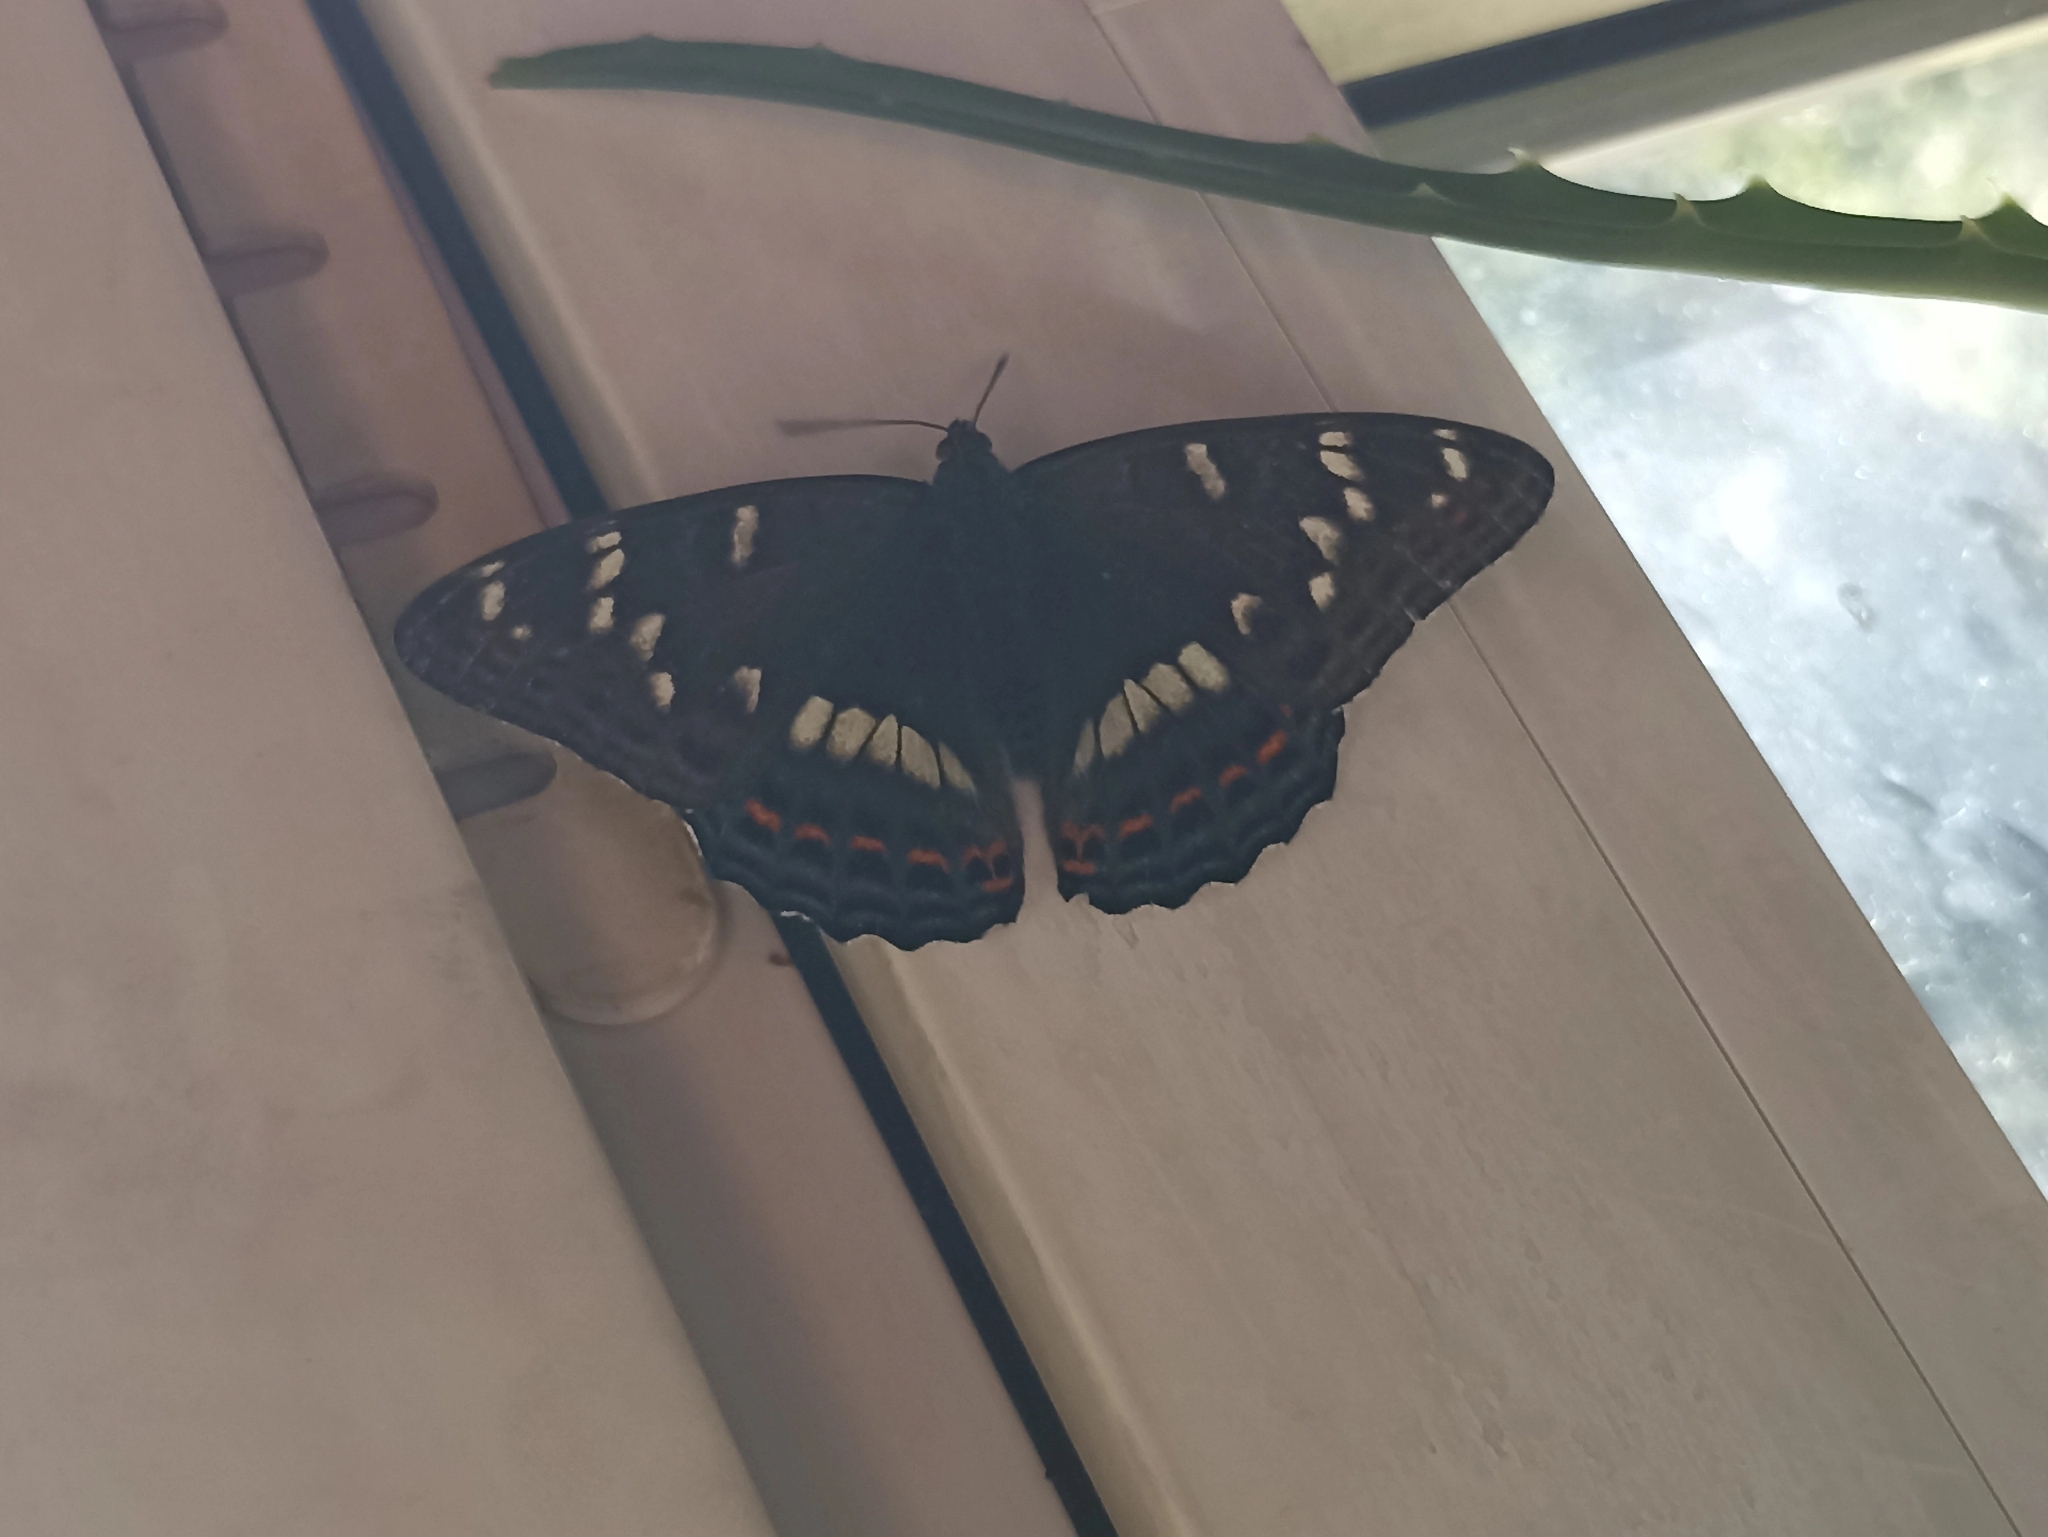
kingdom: Animalia
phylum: Arthropoda
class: Insecta
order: Lepidoptera
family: Nymphalidae
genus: Limenitis
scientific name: Limenitis populi
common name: Poplar admiral
